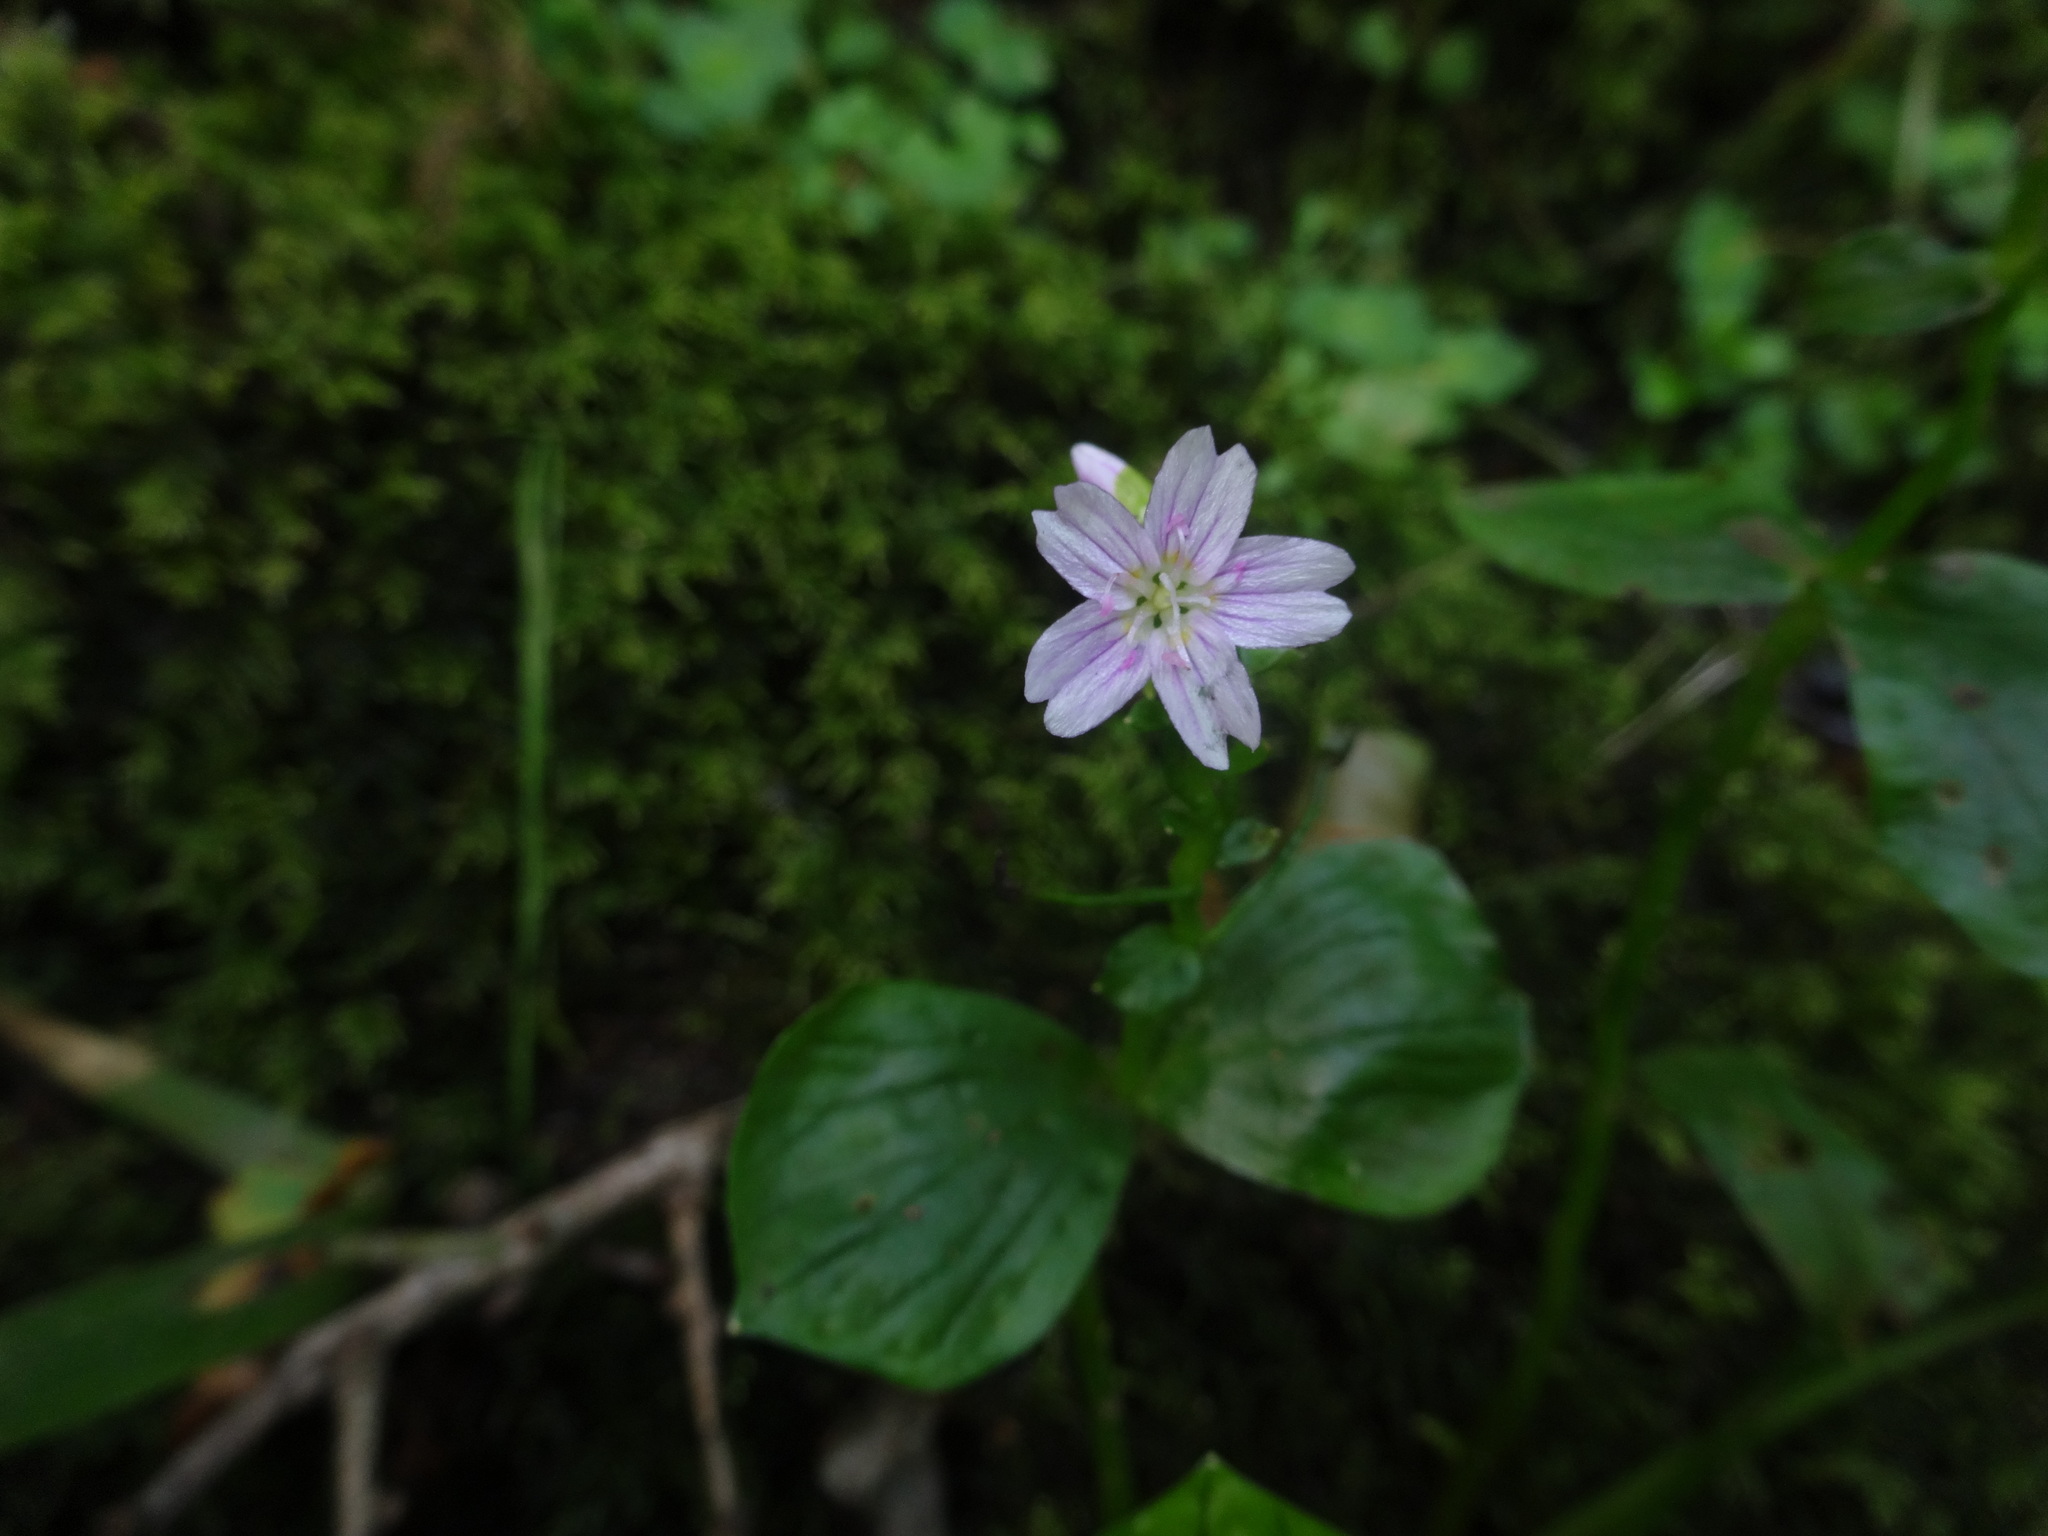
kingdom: Plantae
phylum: Tracheophyta
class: Magnoliopsida
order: Caryophyllales
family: Montiaceae
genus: Claytonia
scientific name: Claytonia sibirica
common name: Pink purslane
